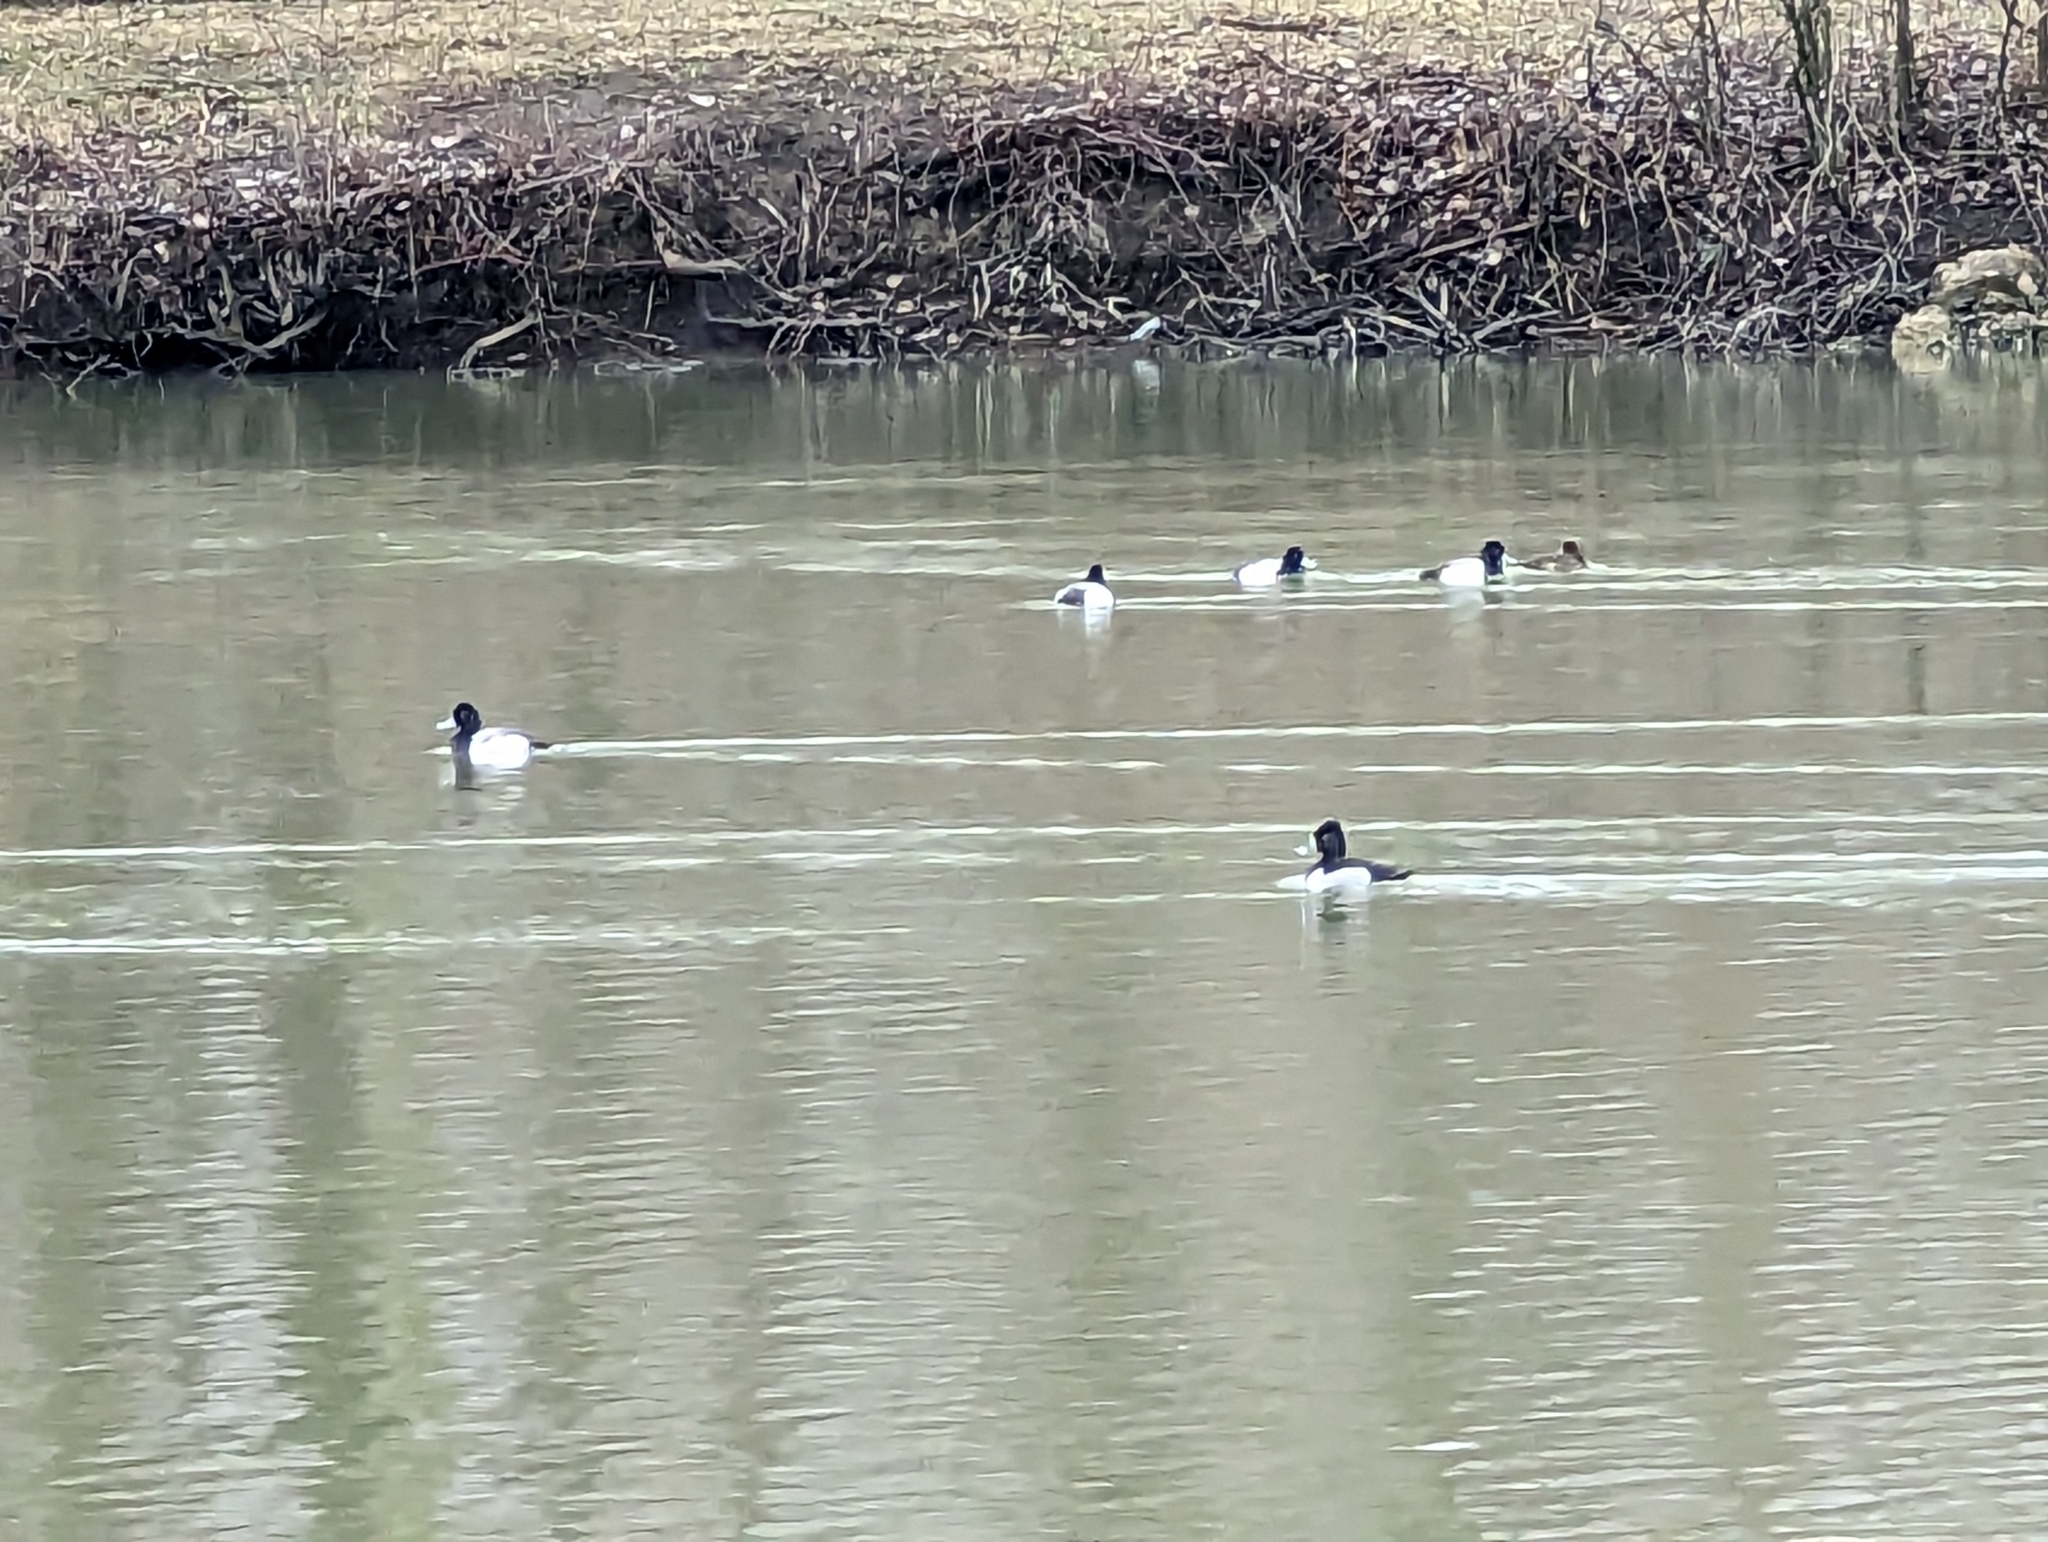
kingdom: Animalia
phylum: Chordata
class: Aves
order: Anseriformes
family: Anatidae
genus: Aythya
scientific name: Aythya marila
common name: Greater scaup
